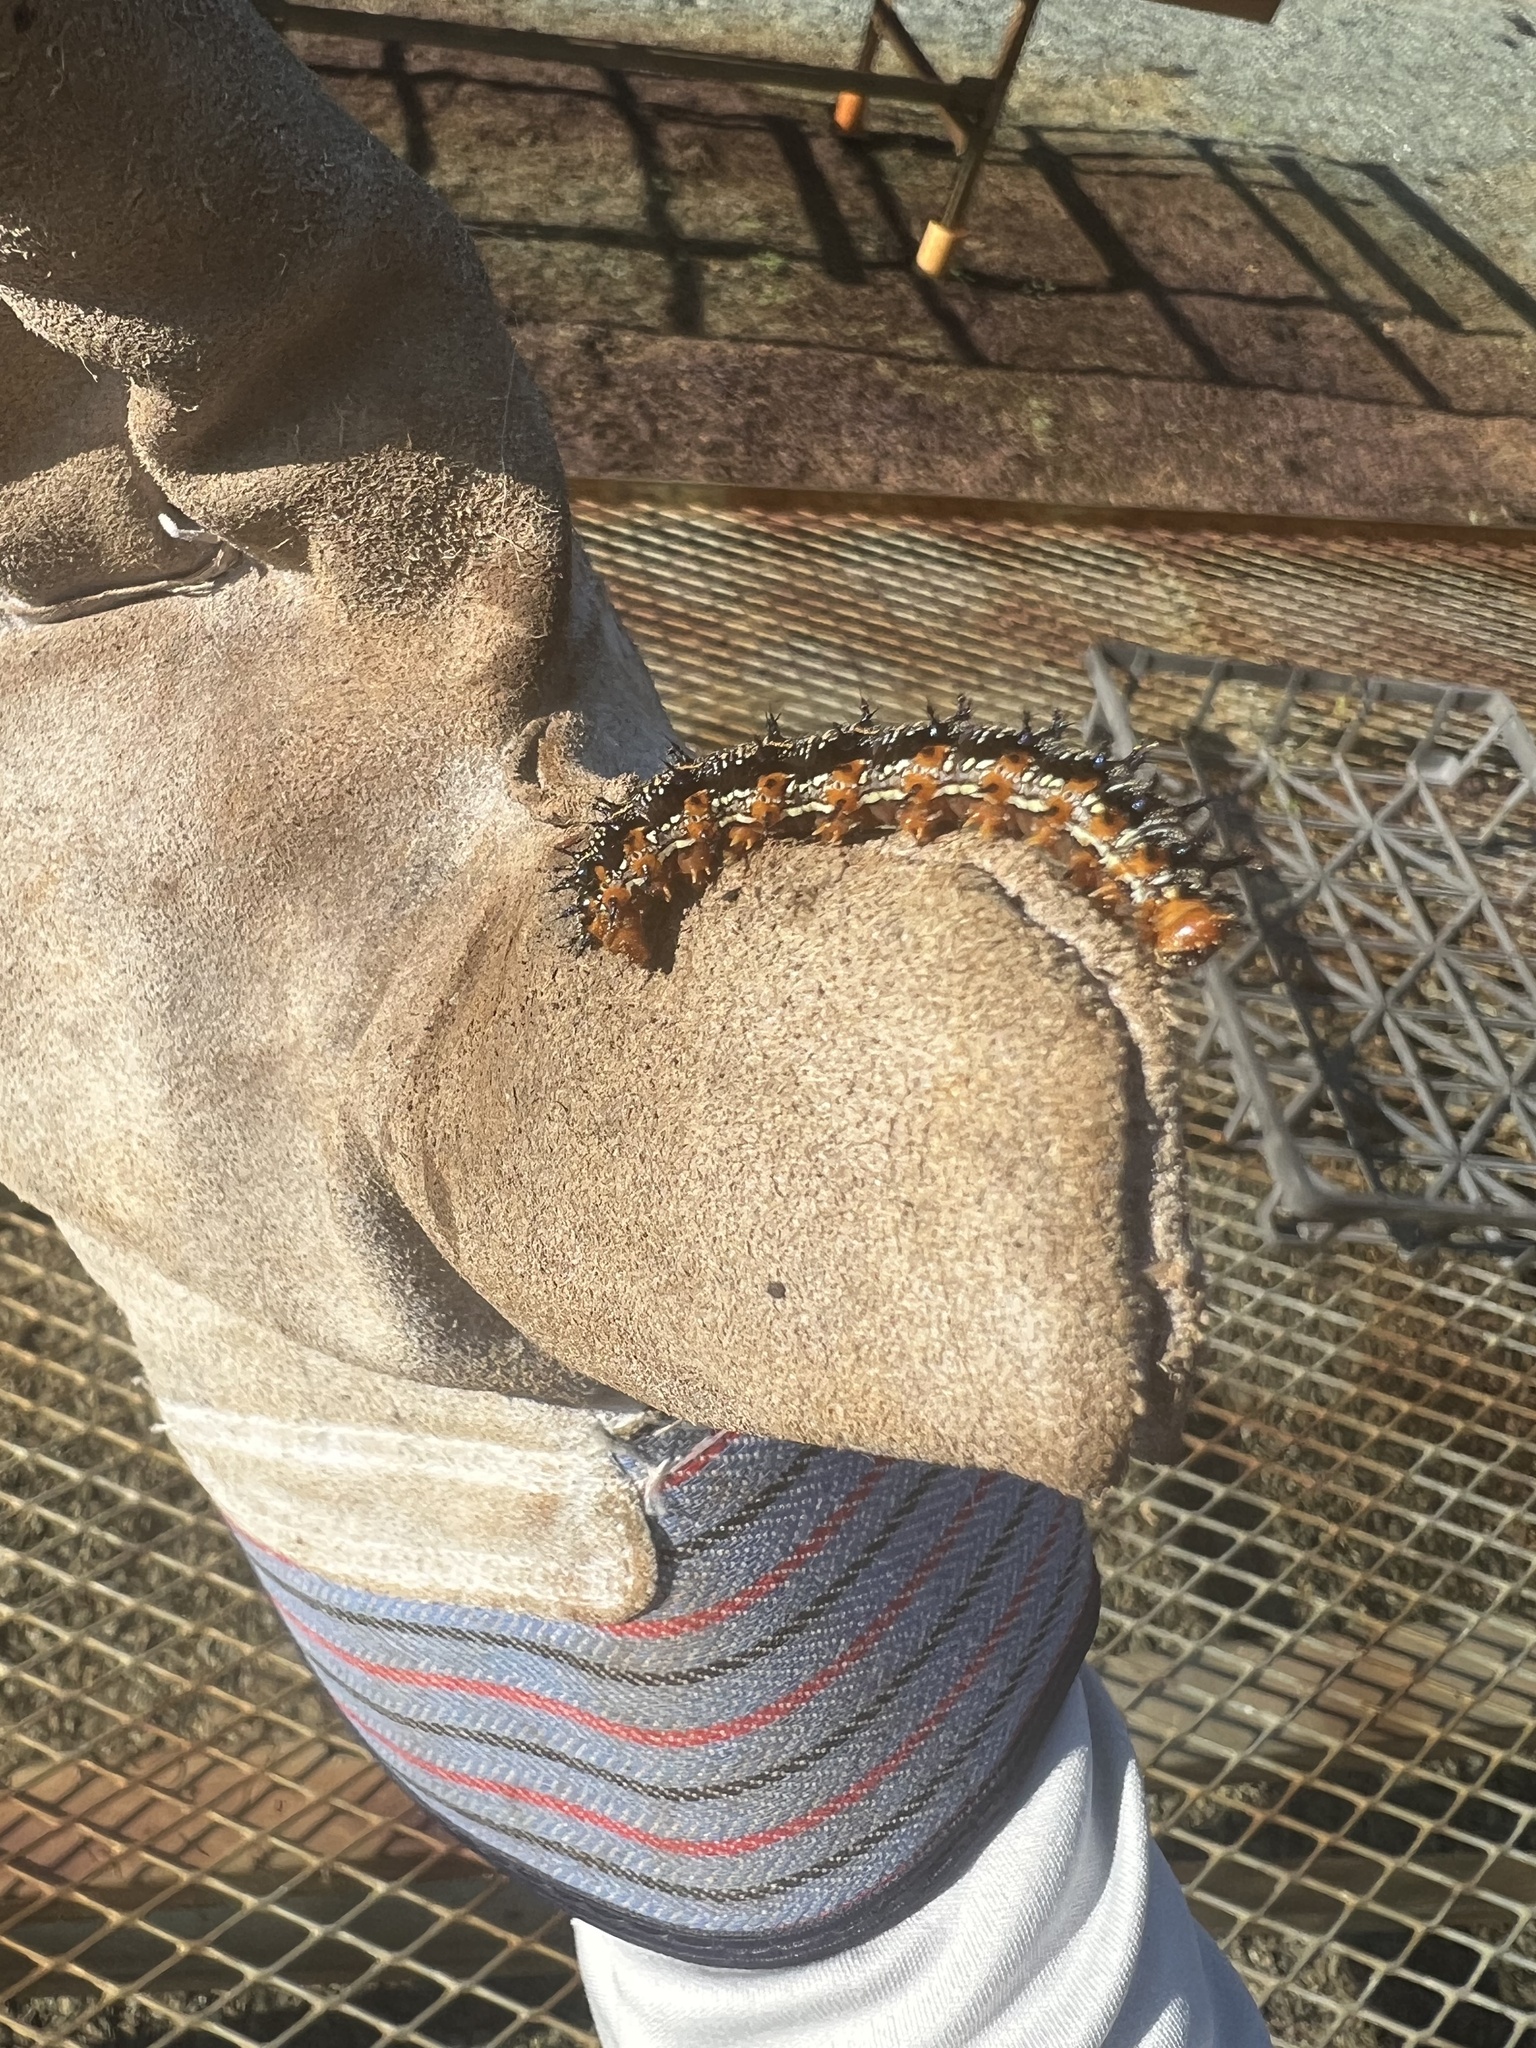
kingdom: Animalia
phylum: Arthropoda
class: Insecta
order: Lepidoptera
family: Nymphalidae
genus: Junonia
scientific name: Junonia coenia
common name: Common buckeye
